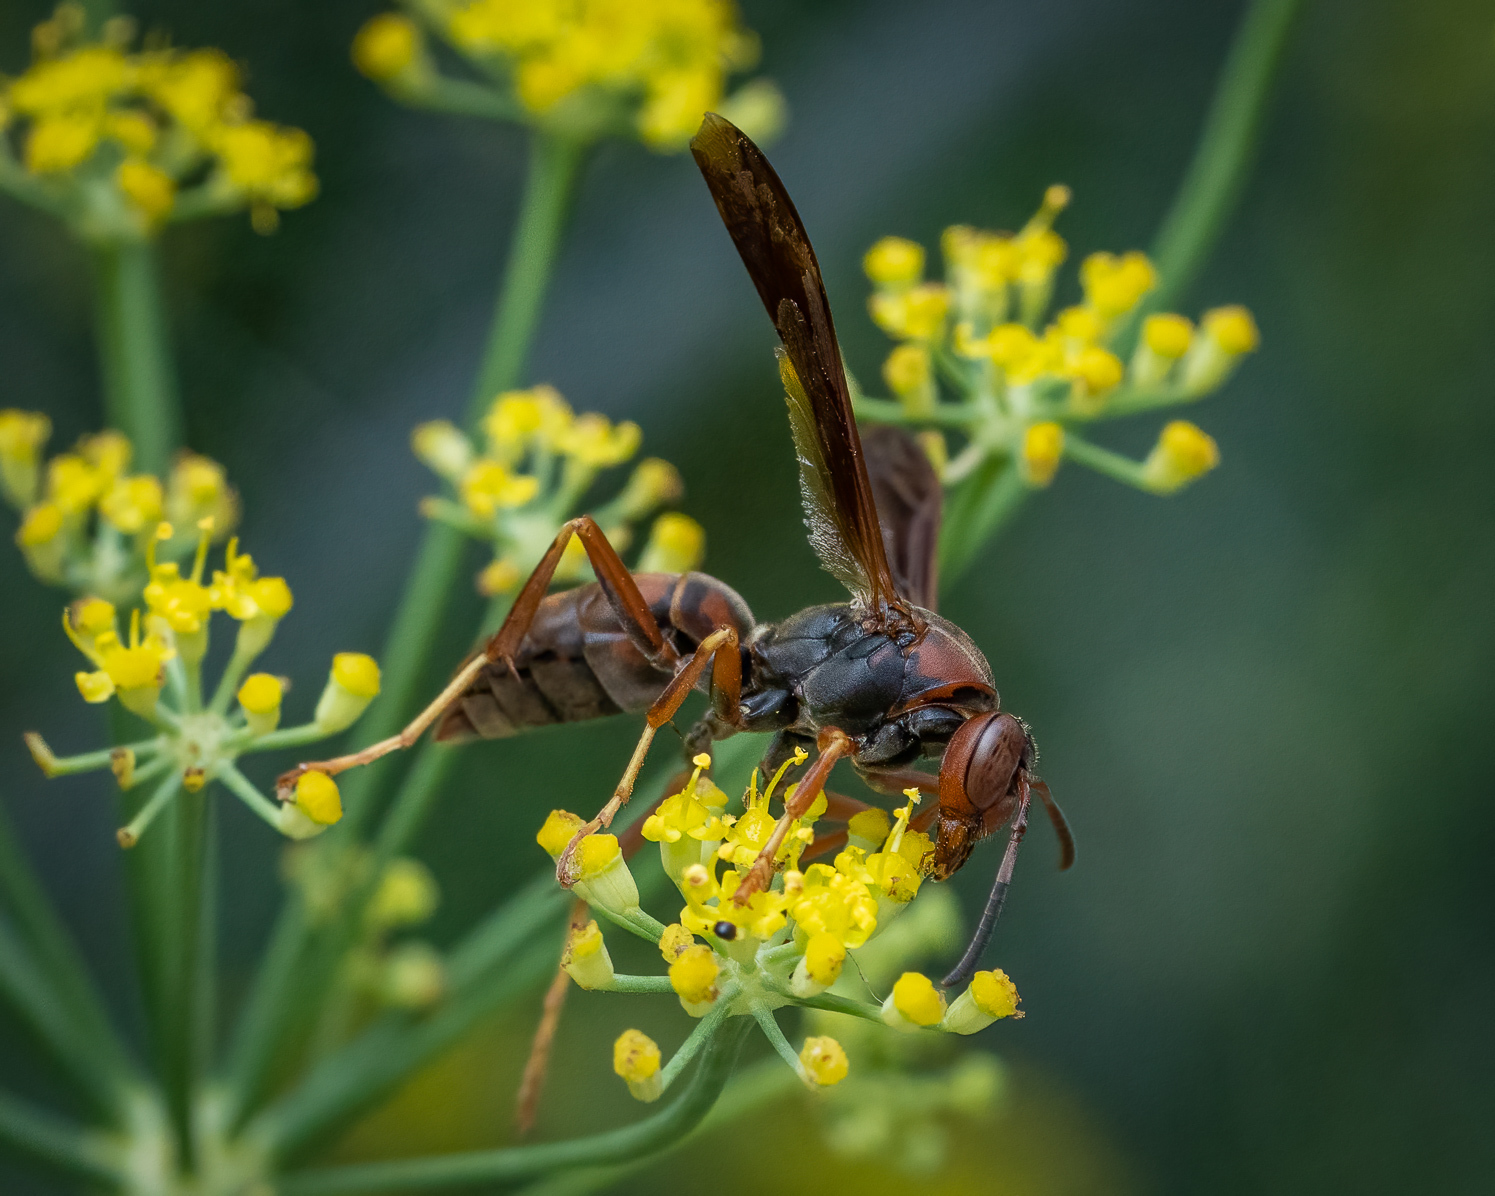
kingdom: Animalia
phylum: Arthropoda
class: Insecta
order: Hymenoptera
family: Eumenidae
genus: Polistes
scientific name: Polistes fuscatus
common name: Dark paper wasp
